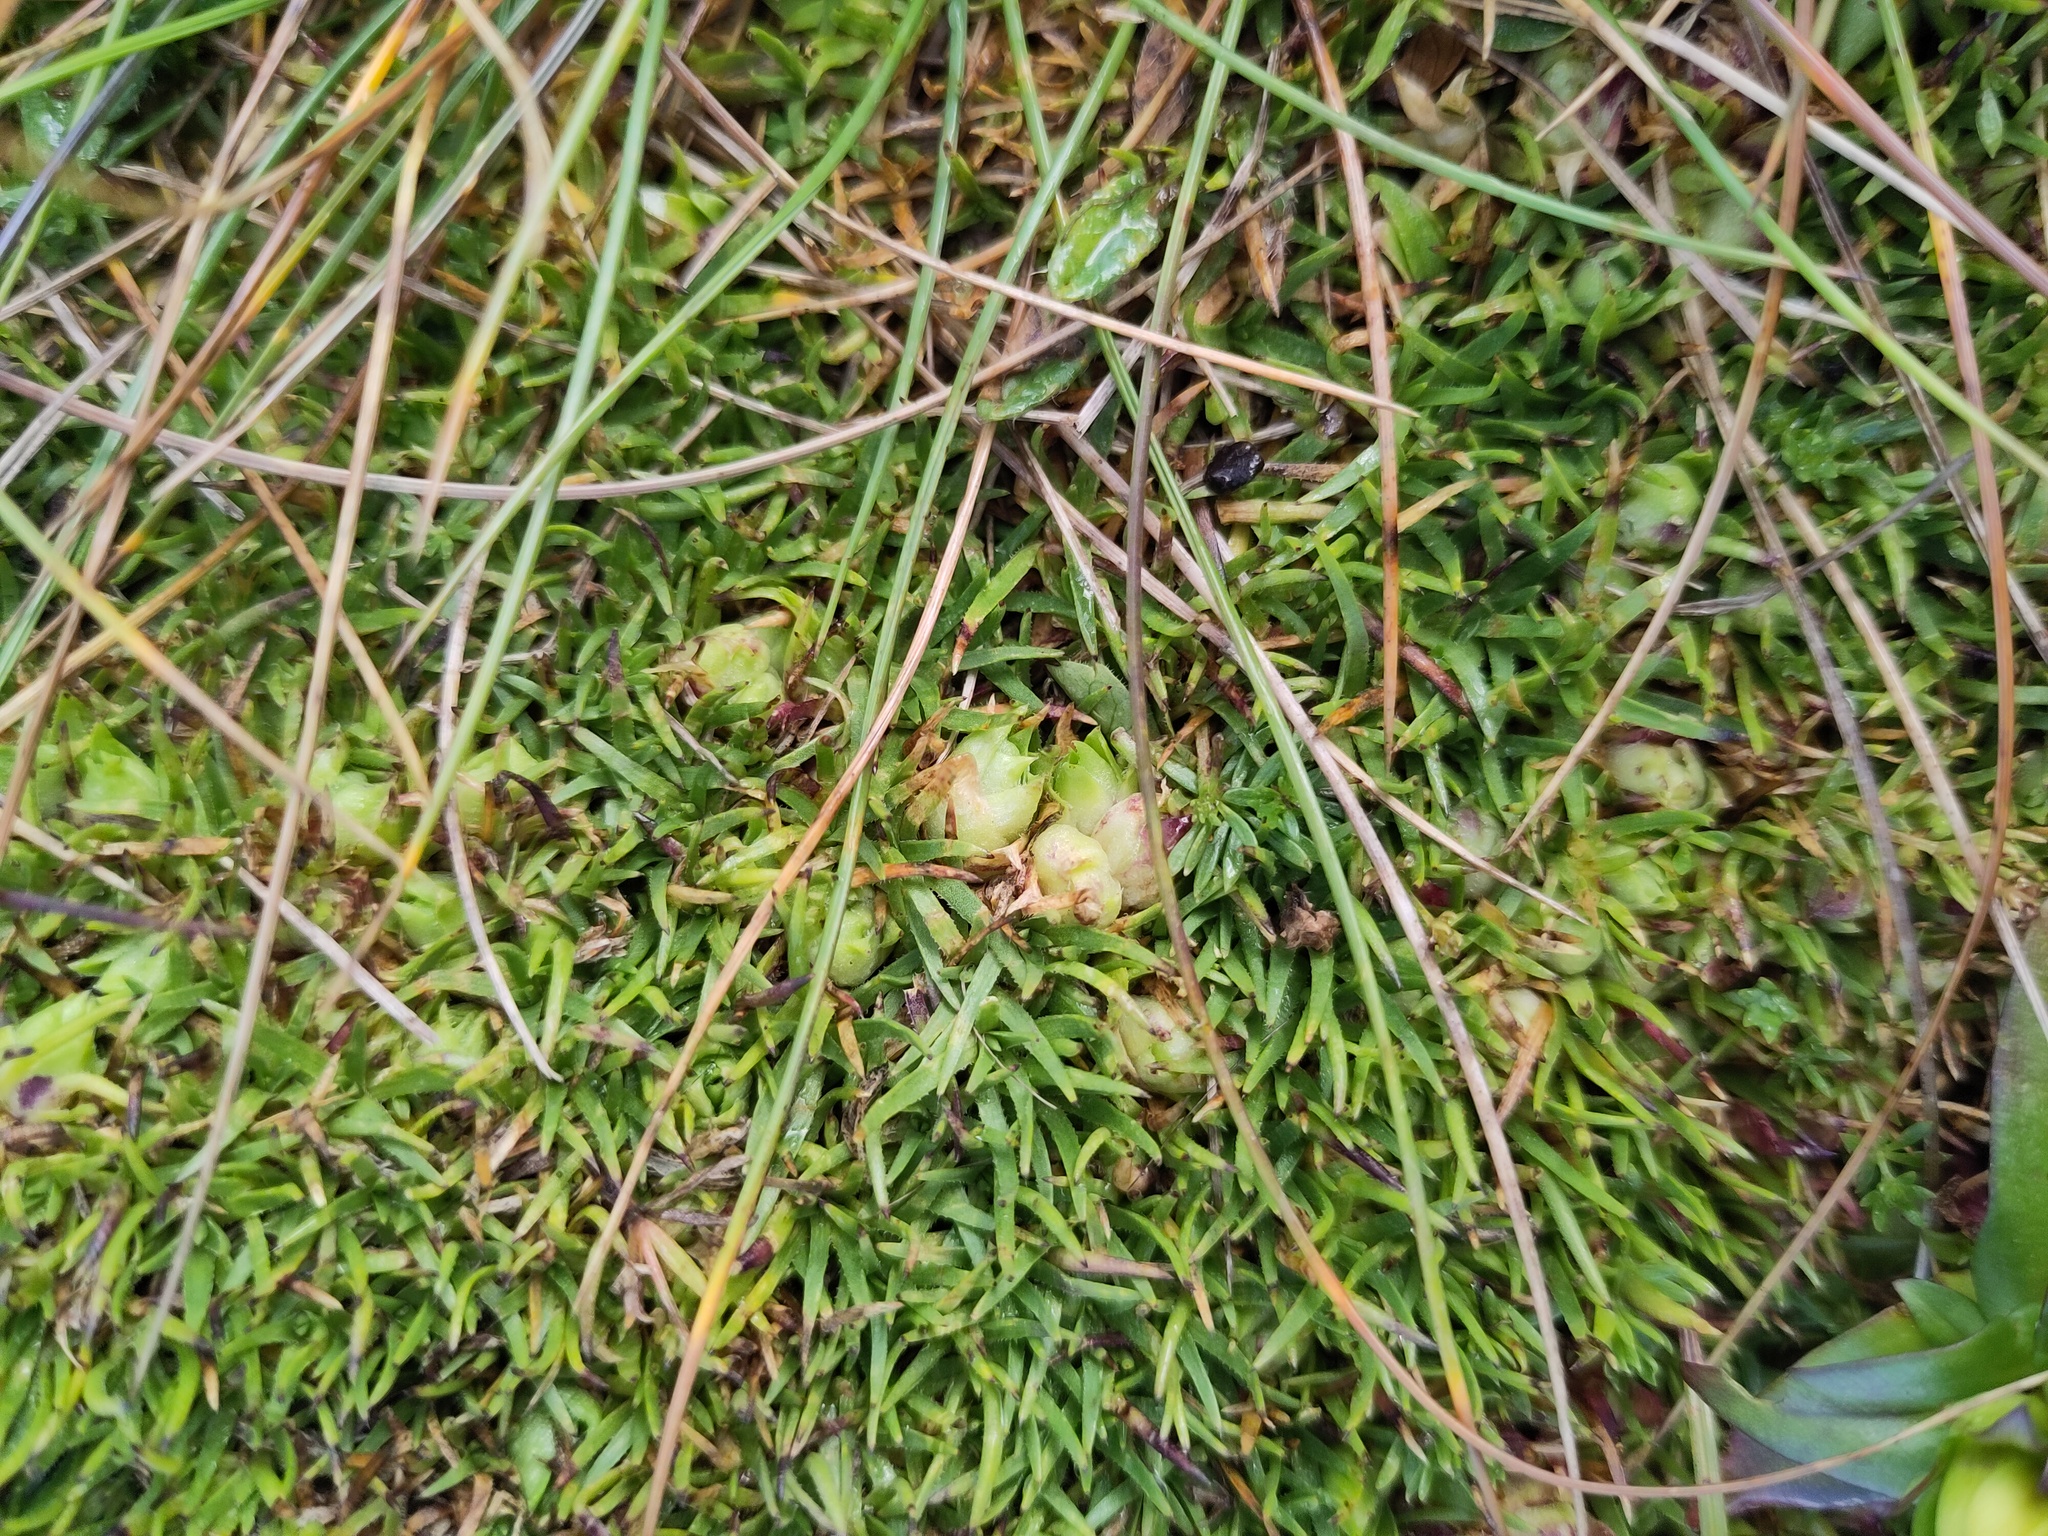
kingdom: Animalia
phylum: Arthropoda
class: Insecta
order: Diptera
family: Cecidomyiidae
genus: Jaapiella
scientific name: Jaapiella alpina
